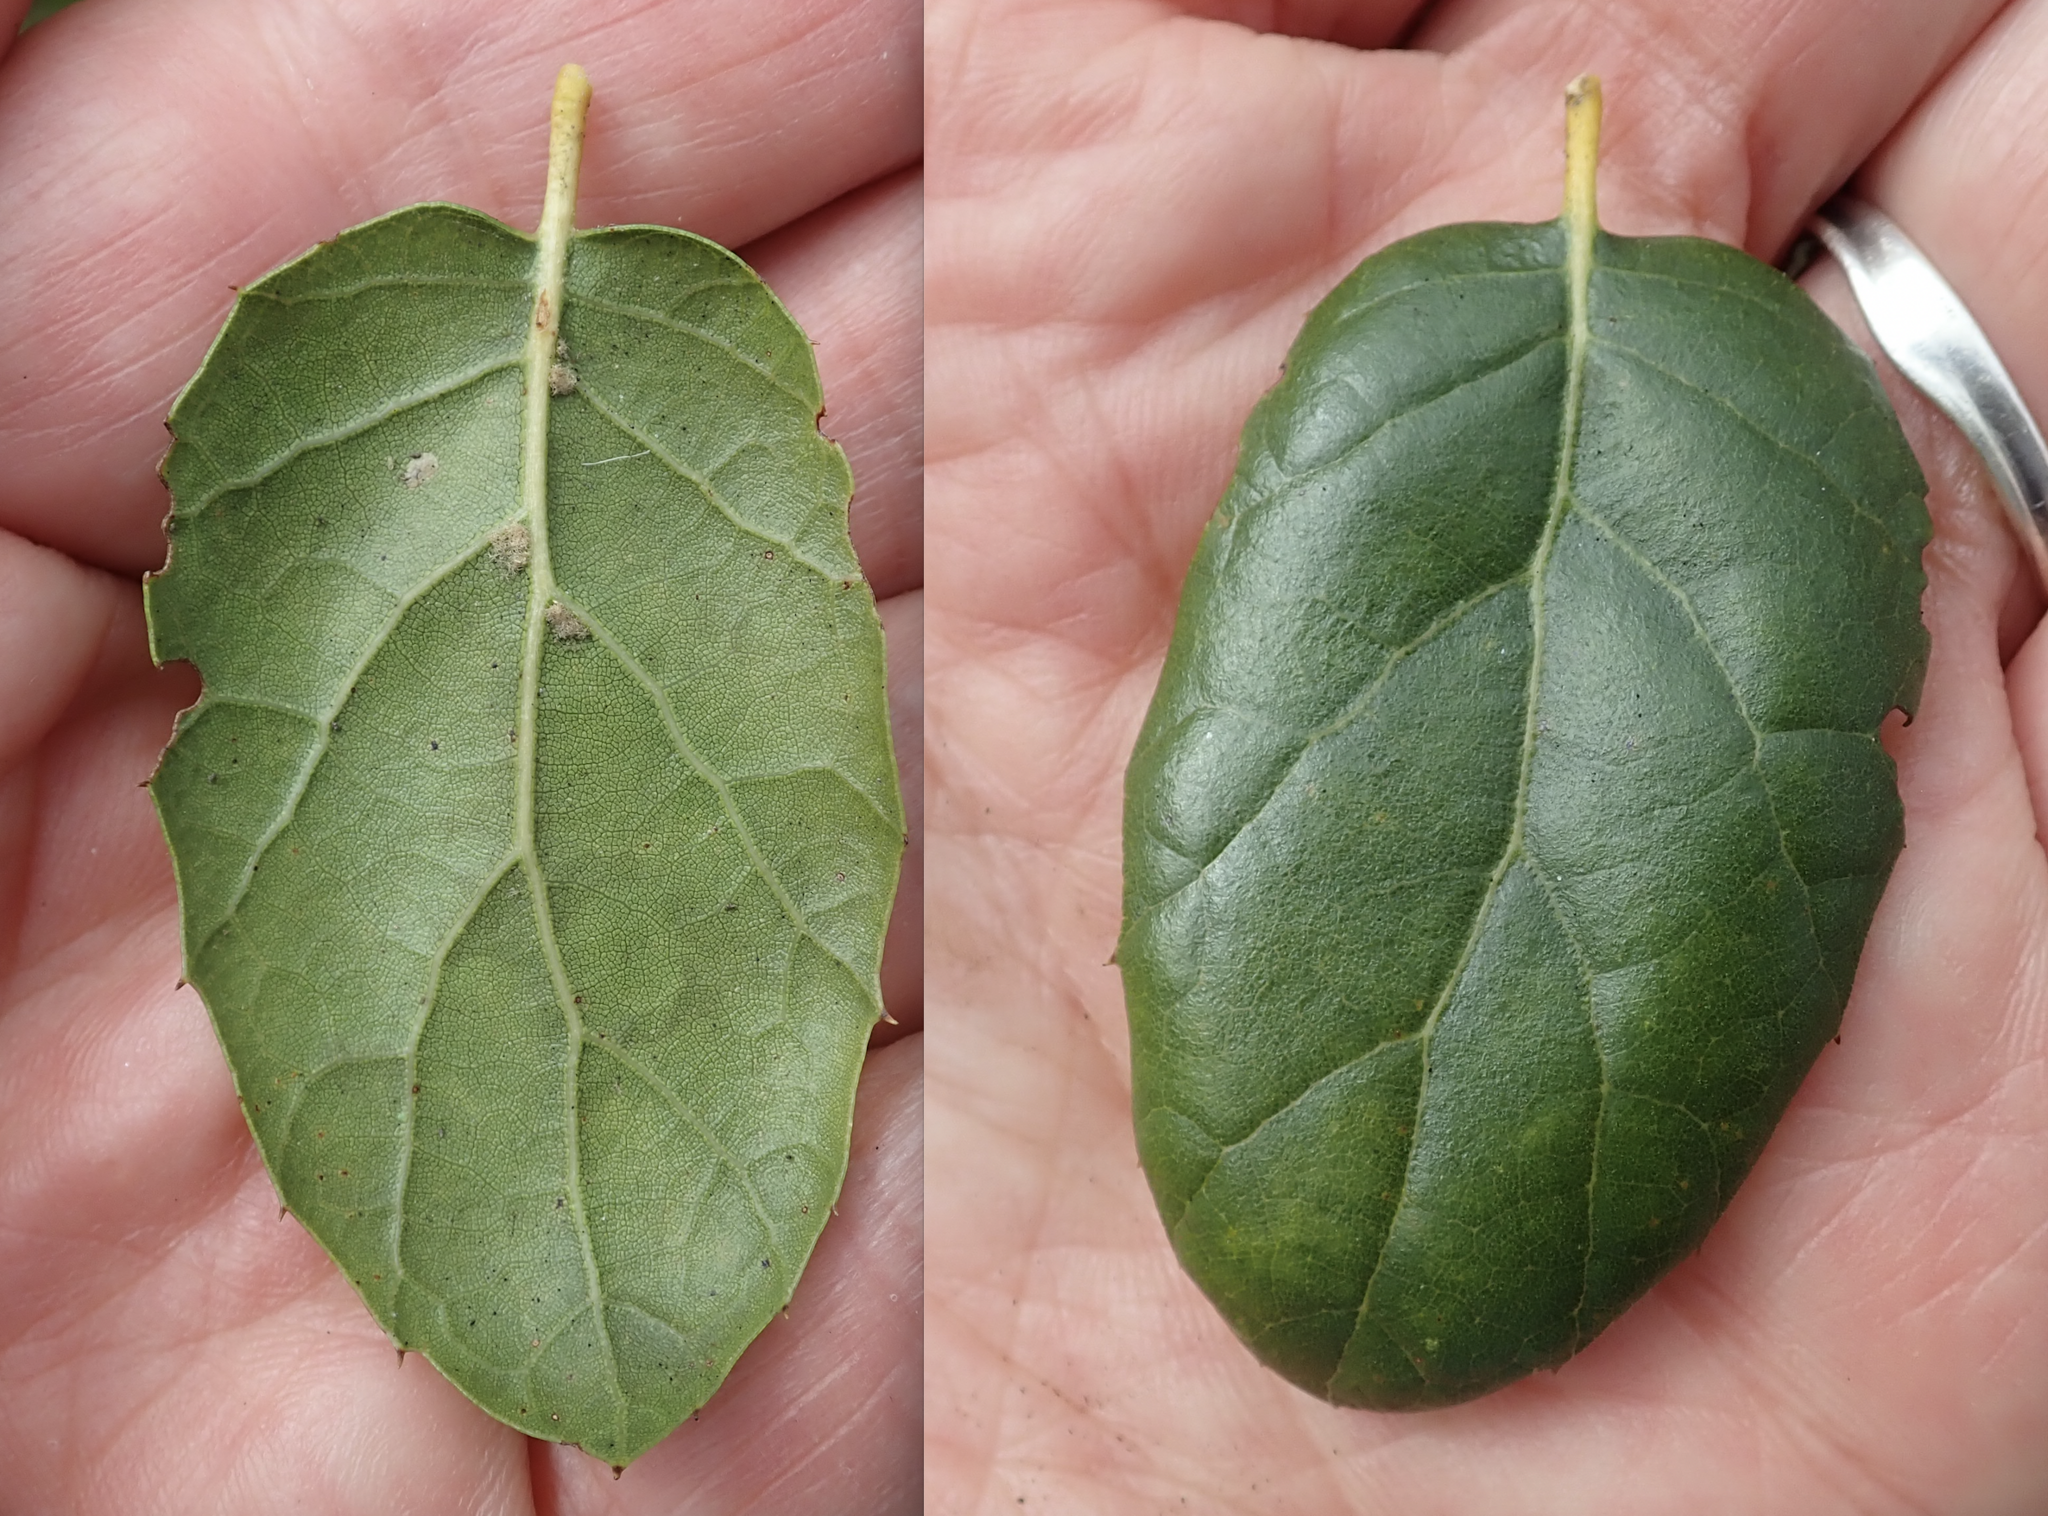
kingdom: Plantae
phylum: Tracheophyta
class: Magnoliopsida
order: Fagales
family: Fagaceae
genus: Quercus
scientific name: Quercus agrifolia
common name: California live oak
